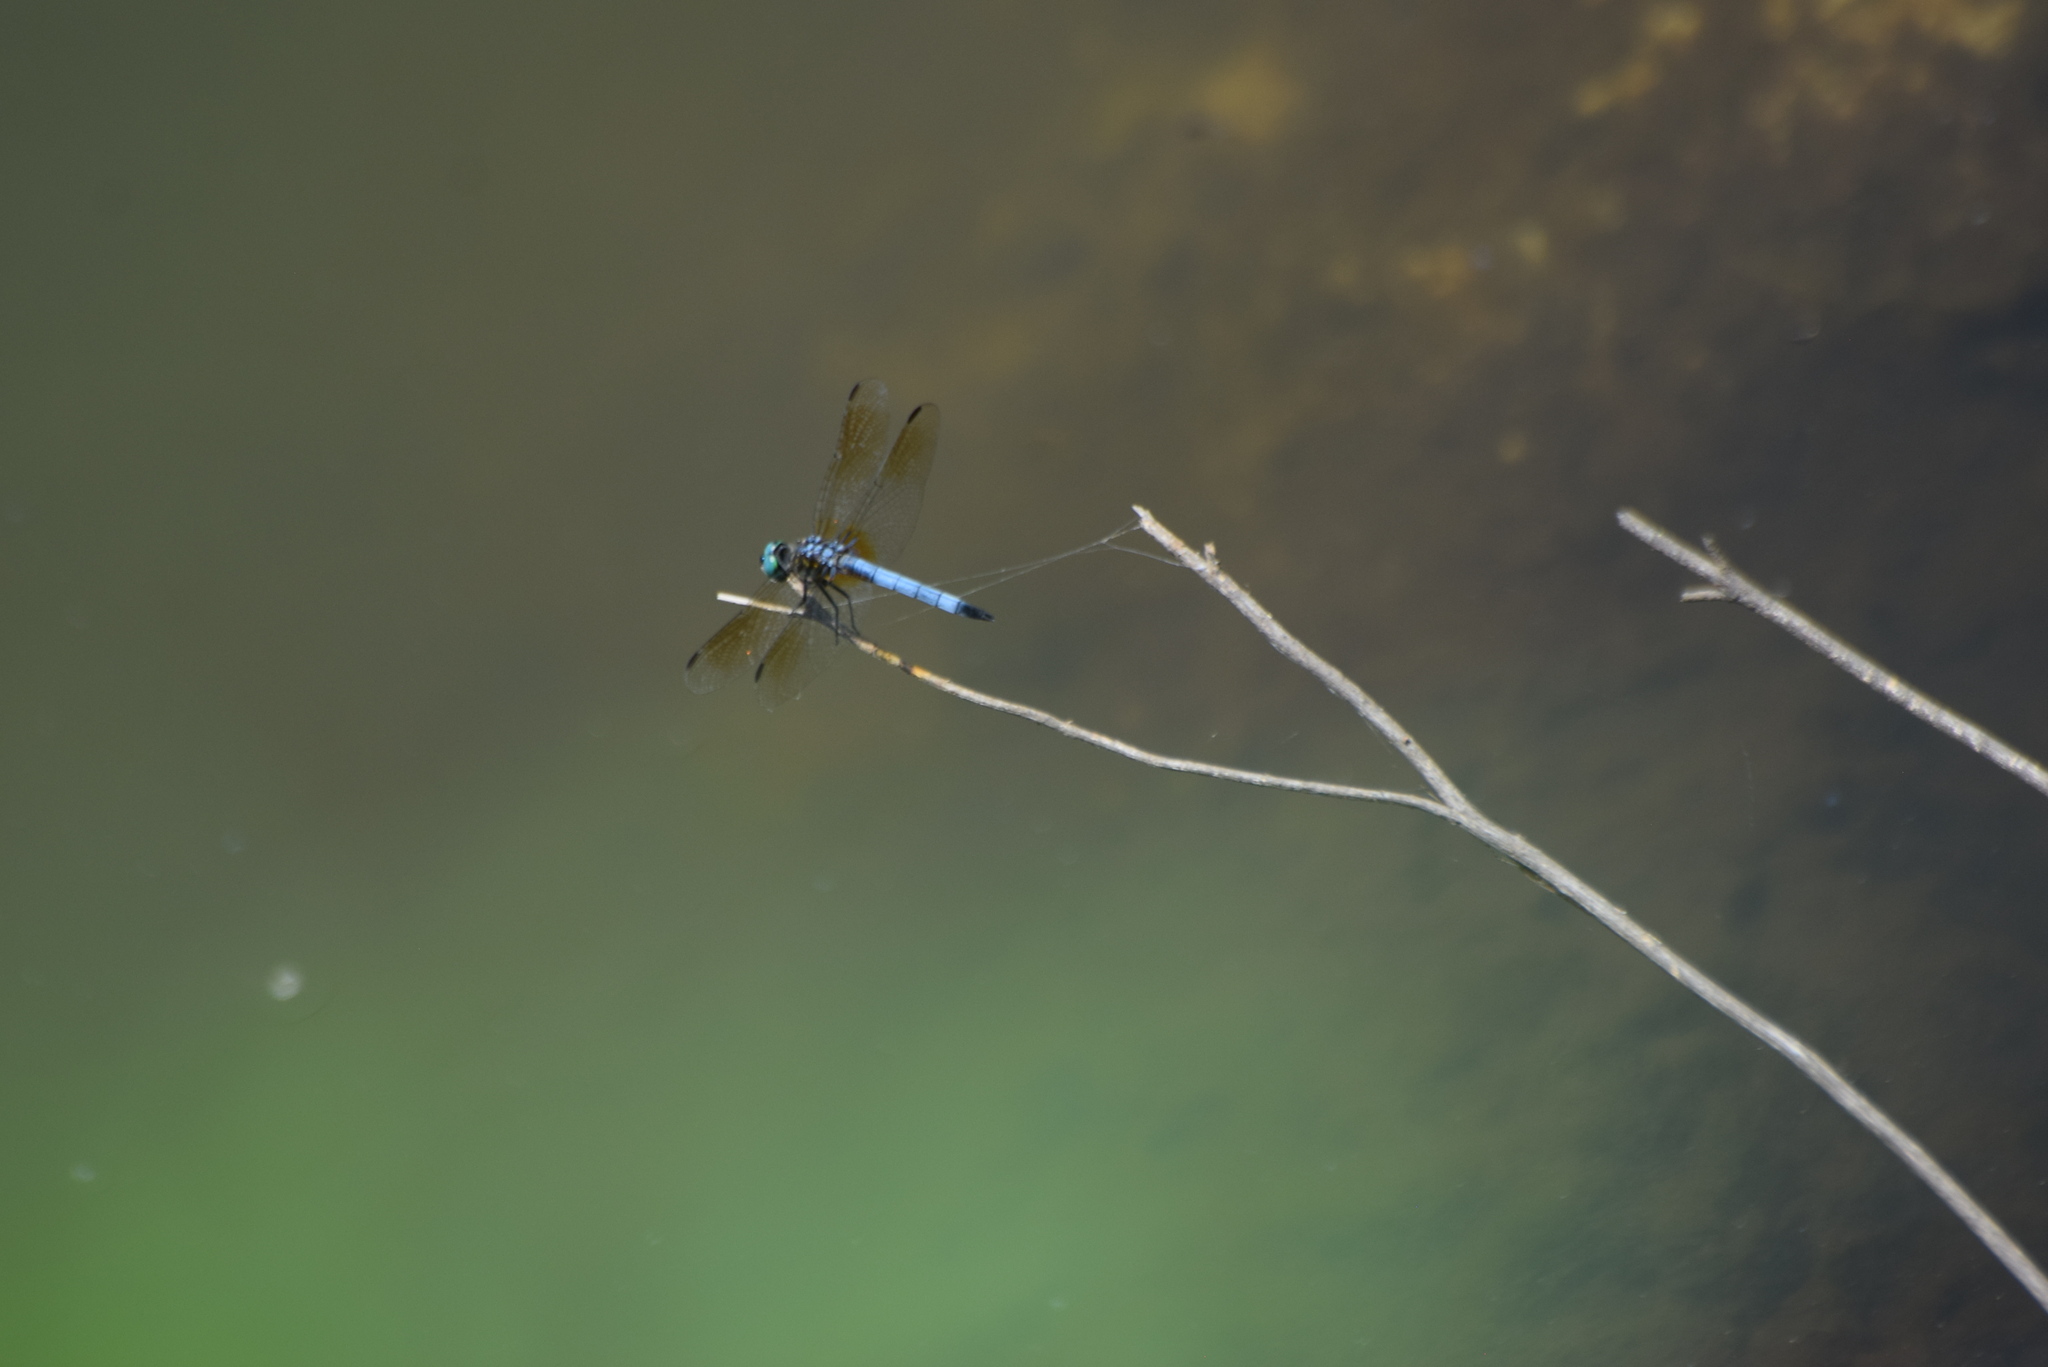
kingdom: Animalia
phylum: Arthropoda
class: Insecta
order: Odonata
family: Libellulidae
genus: Pachydiplax
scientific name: Pachydiplax longipennis
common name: Blue dasher
